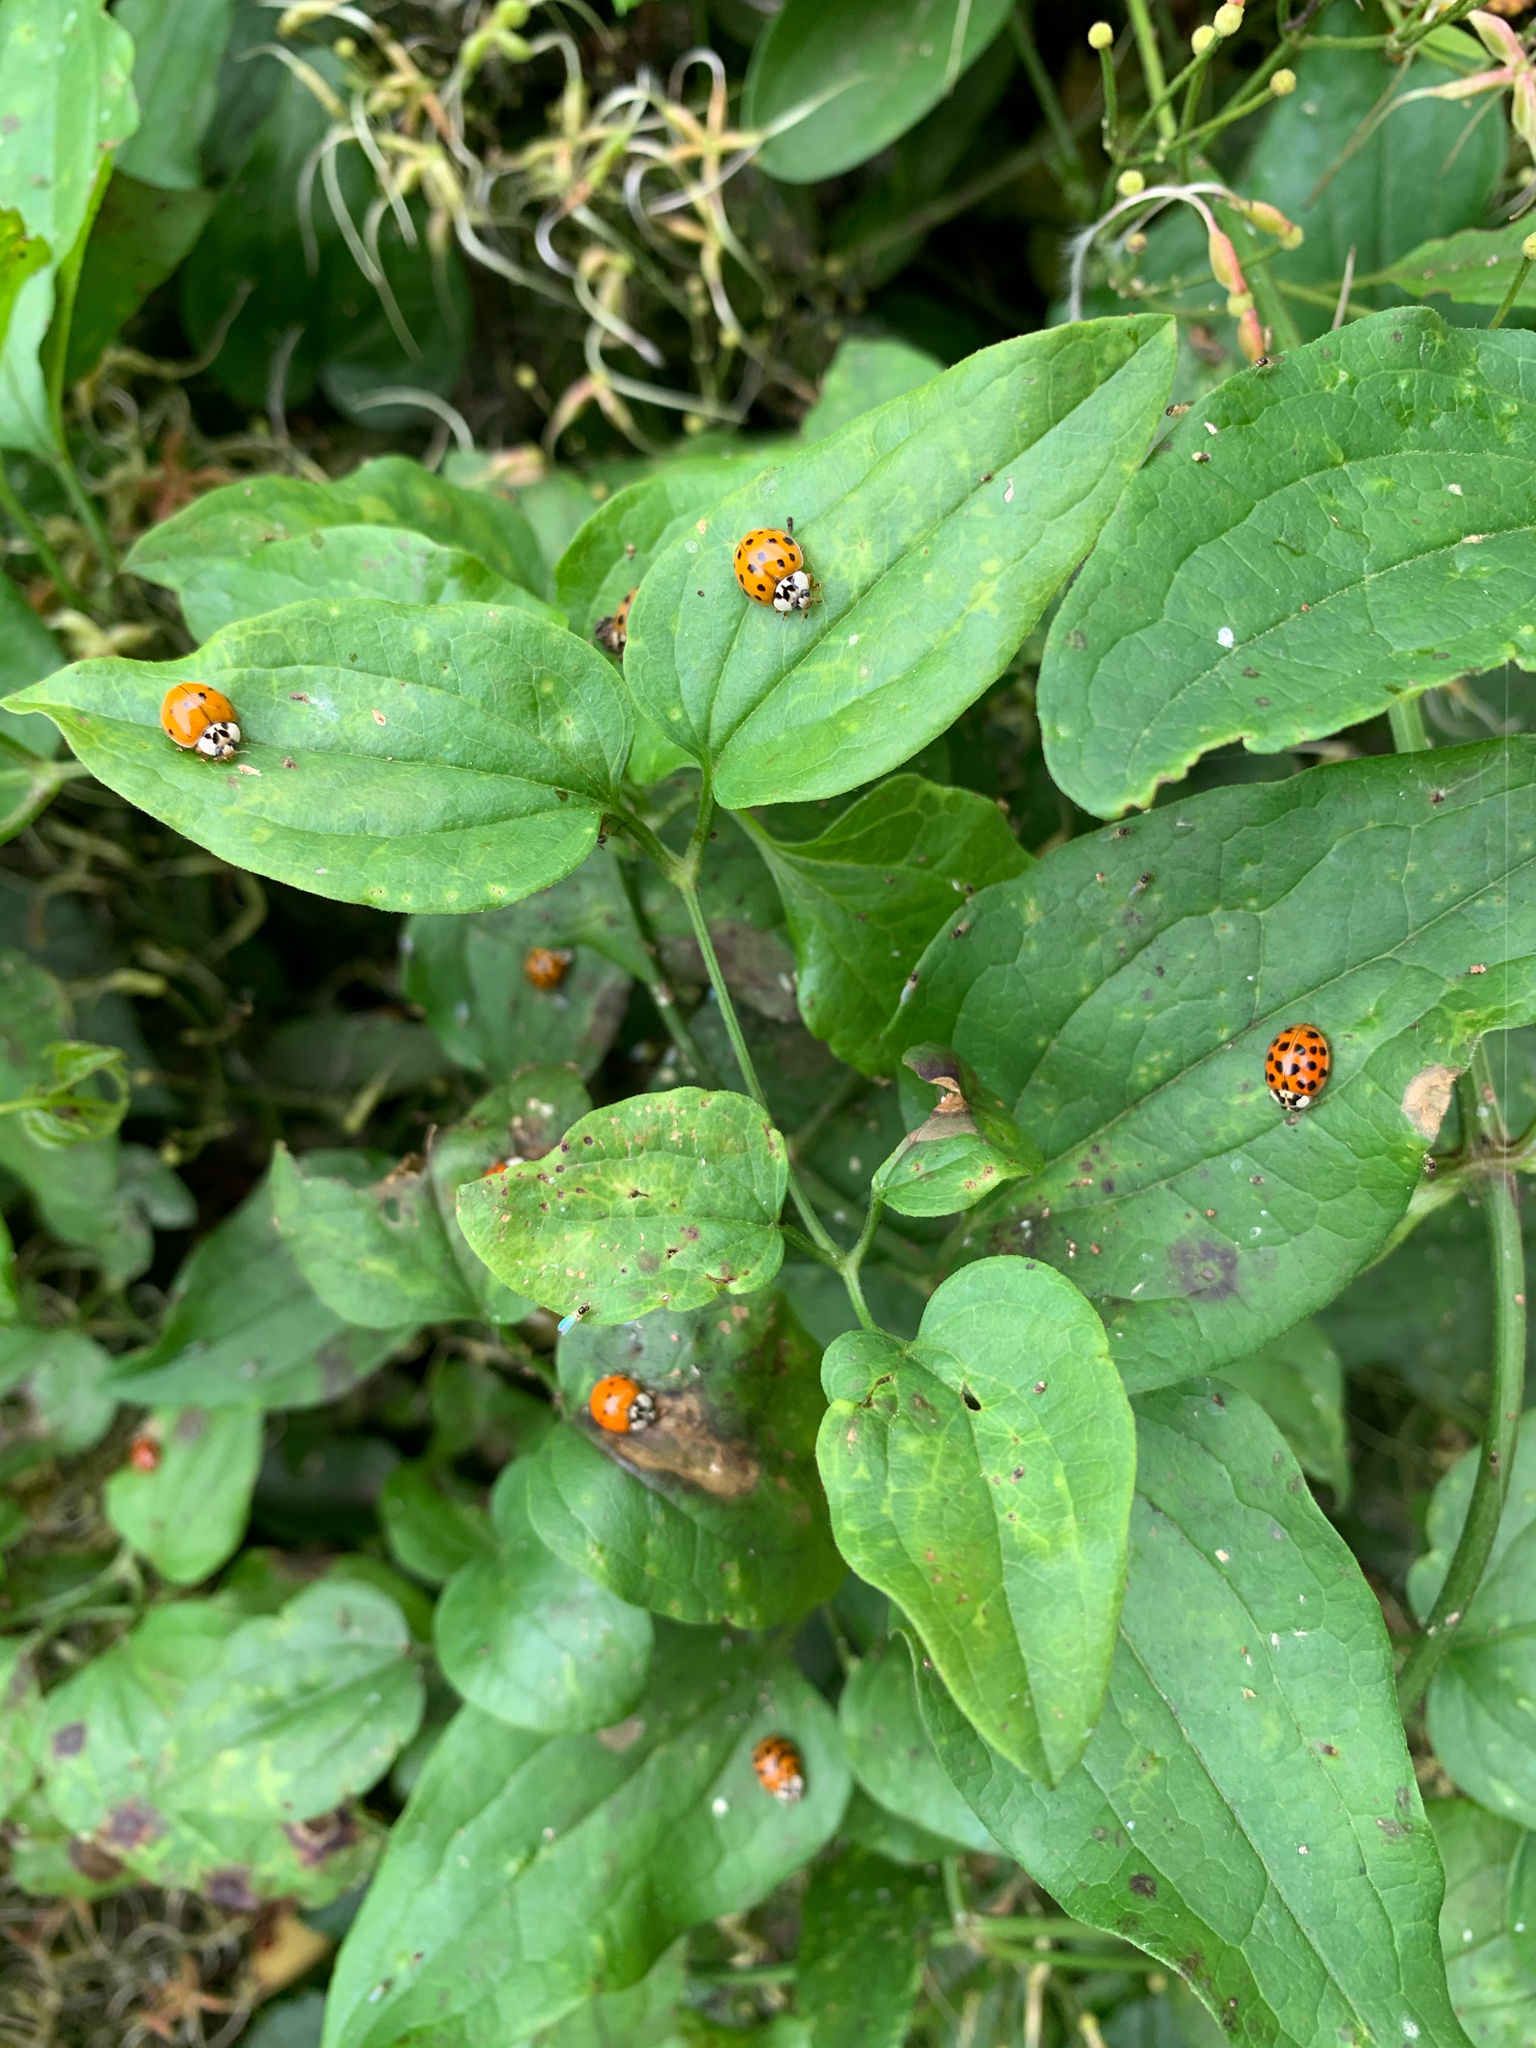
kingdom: Animalia
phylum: Arthropoda
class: Insecta
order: Coleoptera
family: Coccinellidae
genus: Harmonia
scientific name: Harmonia axyridis
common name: Harlequin ladybird
